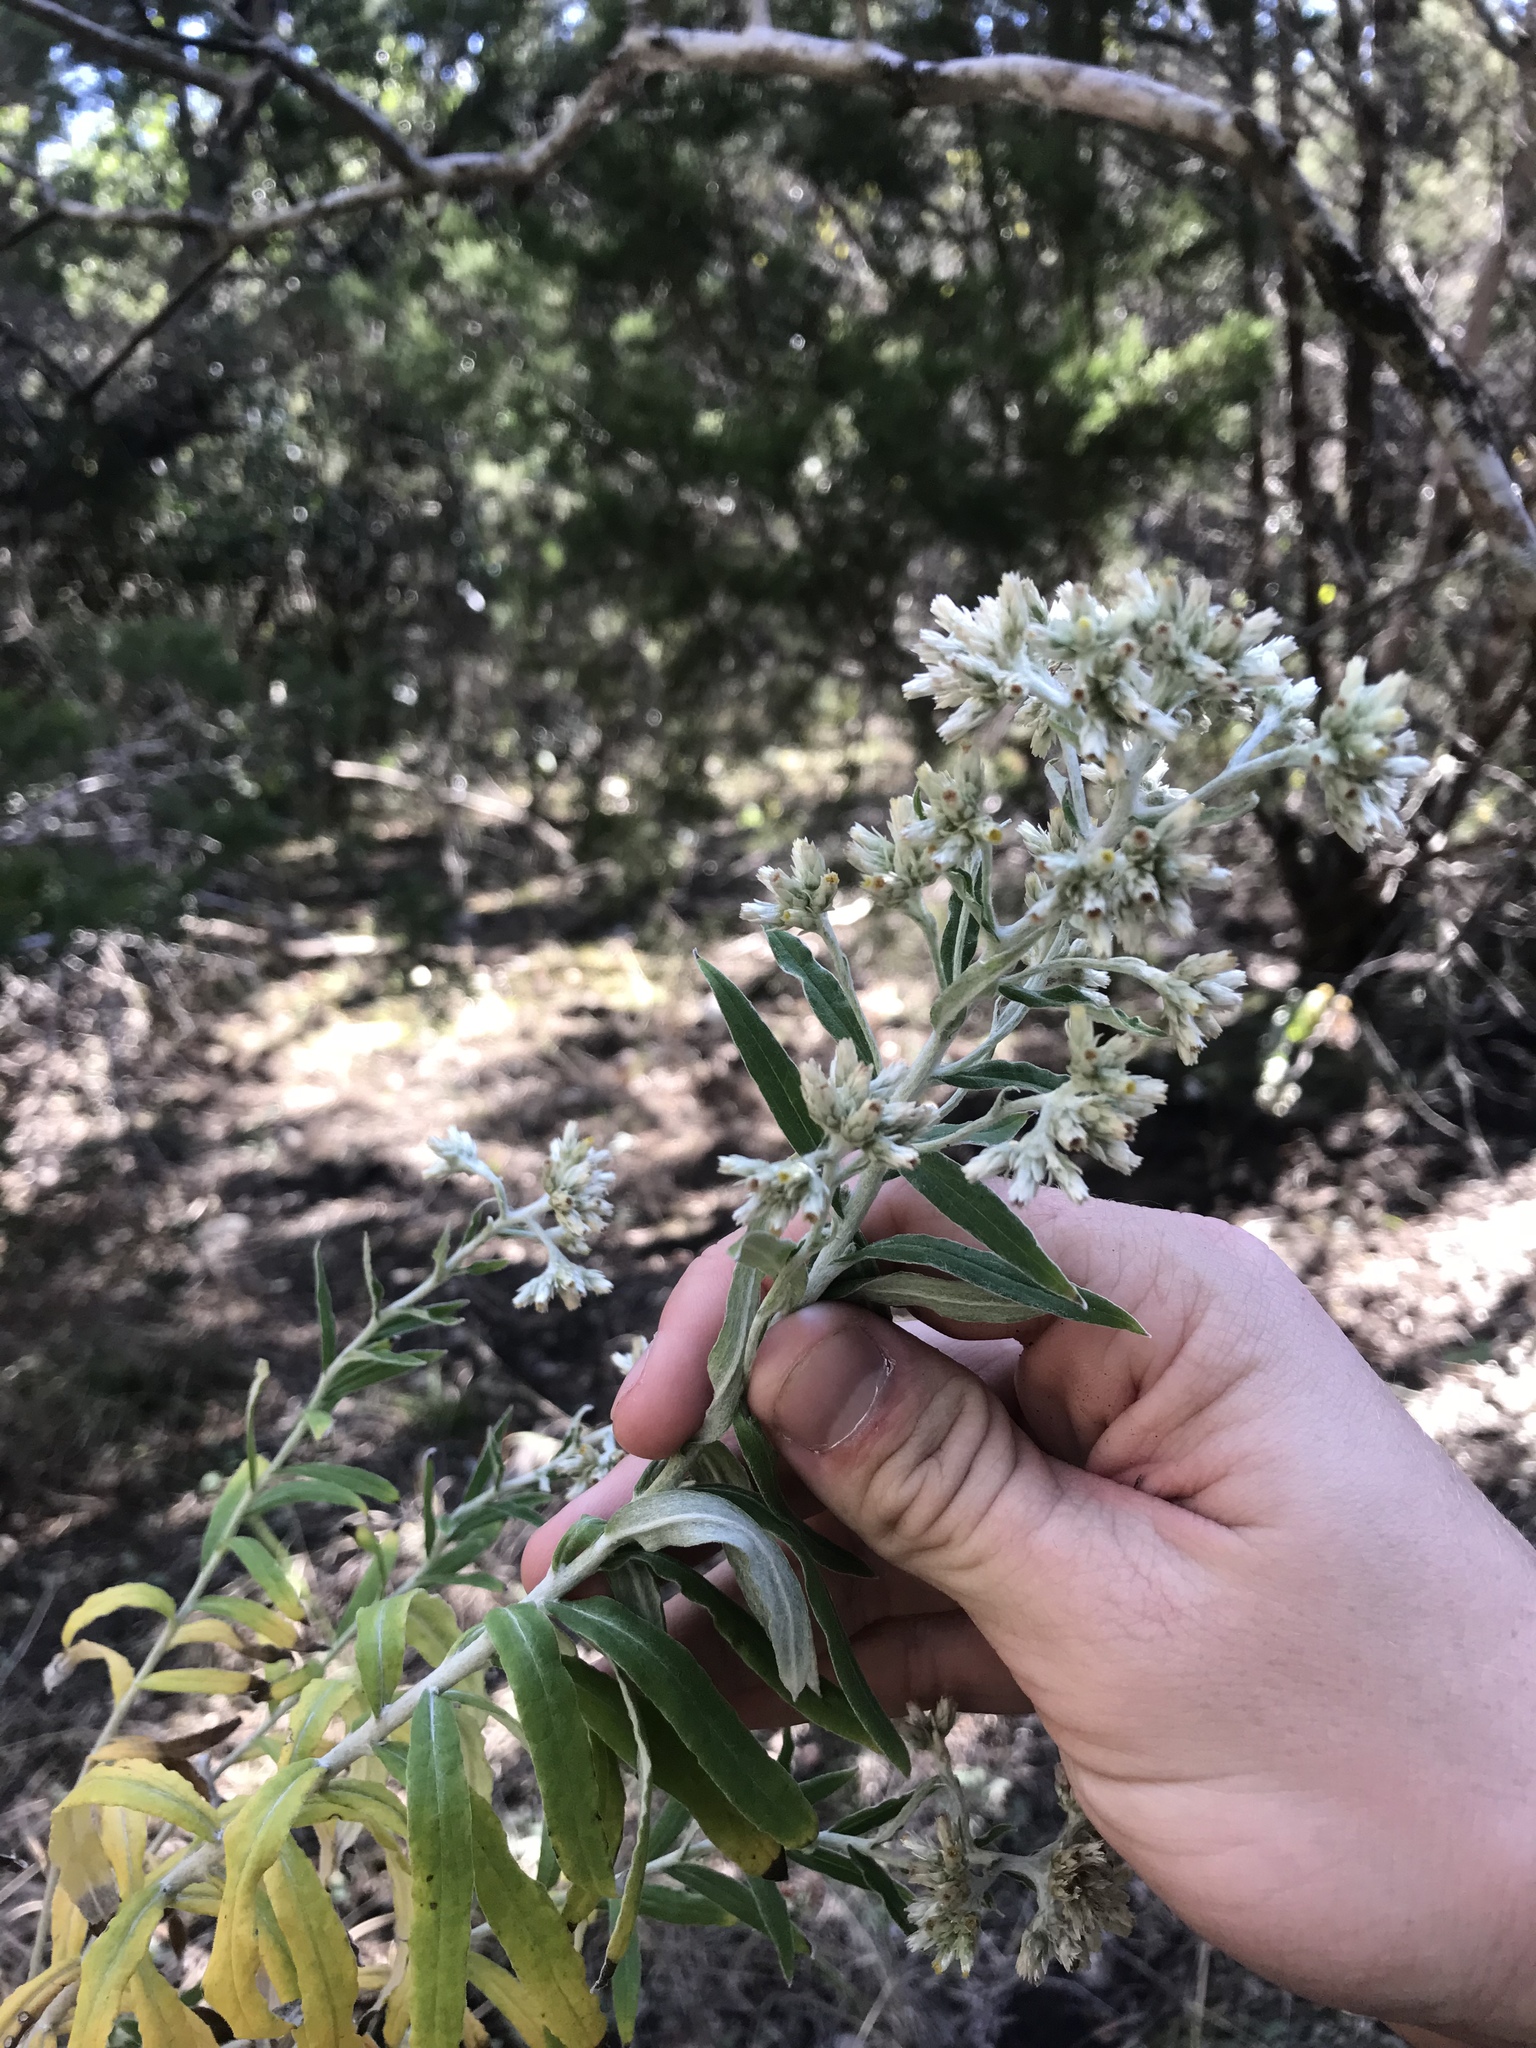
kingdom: Plantae
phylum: Tracheophyta
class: Magnoliopsida
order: Asterales
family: Asteraceae
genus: Pseudognaphalium
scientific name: Pseudognaphalium obtusifolium
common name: Eastern rabbit-tobacco
